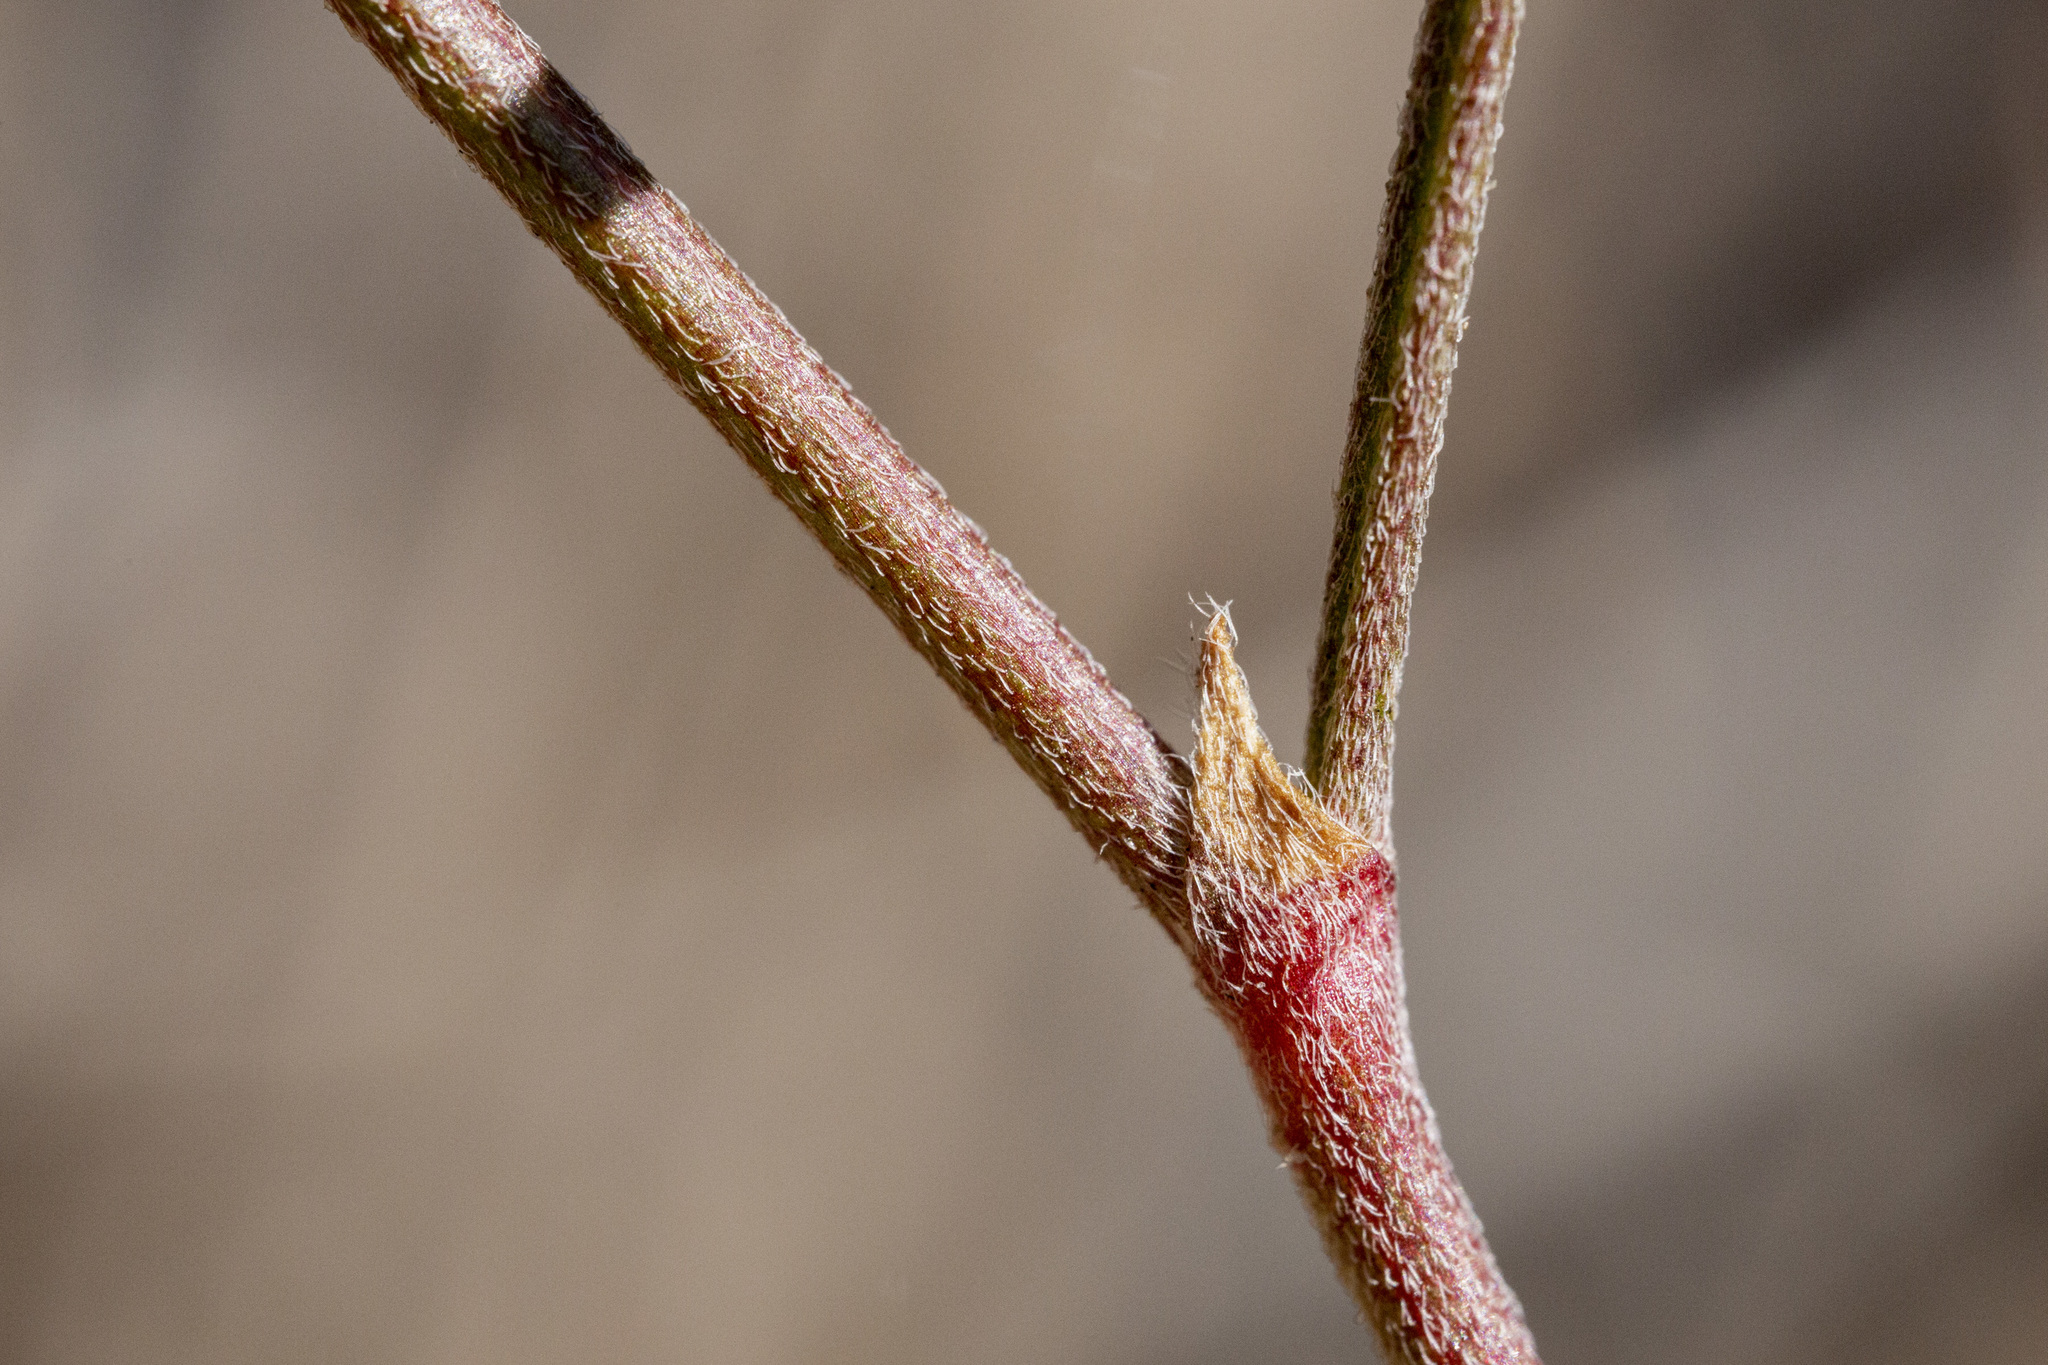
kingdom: Plantae
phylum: Tracheophyta
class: Magnoliopsida
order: Fabales
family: Fabaceae
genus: Astragalus
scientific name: Astragalus puniceus
